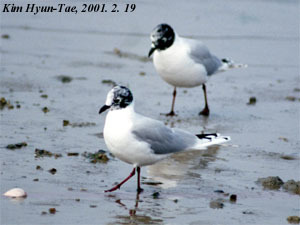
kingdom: Animalia
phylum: Chordata
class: Aves
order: Charadriiformes
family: Laridae
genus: Chroicocephalus
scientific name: Chroicocephalus saundersi
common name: Saunders's gull
